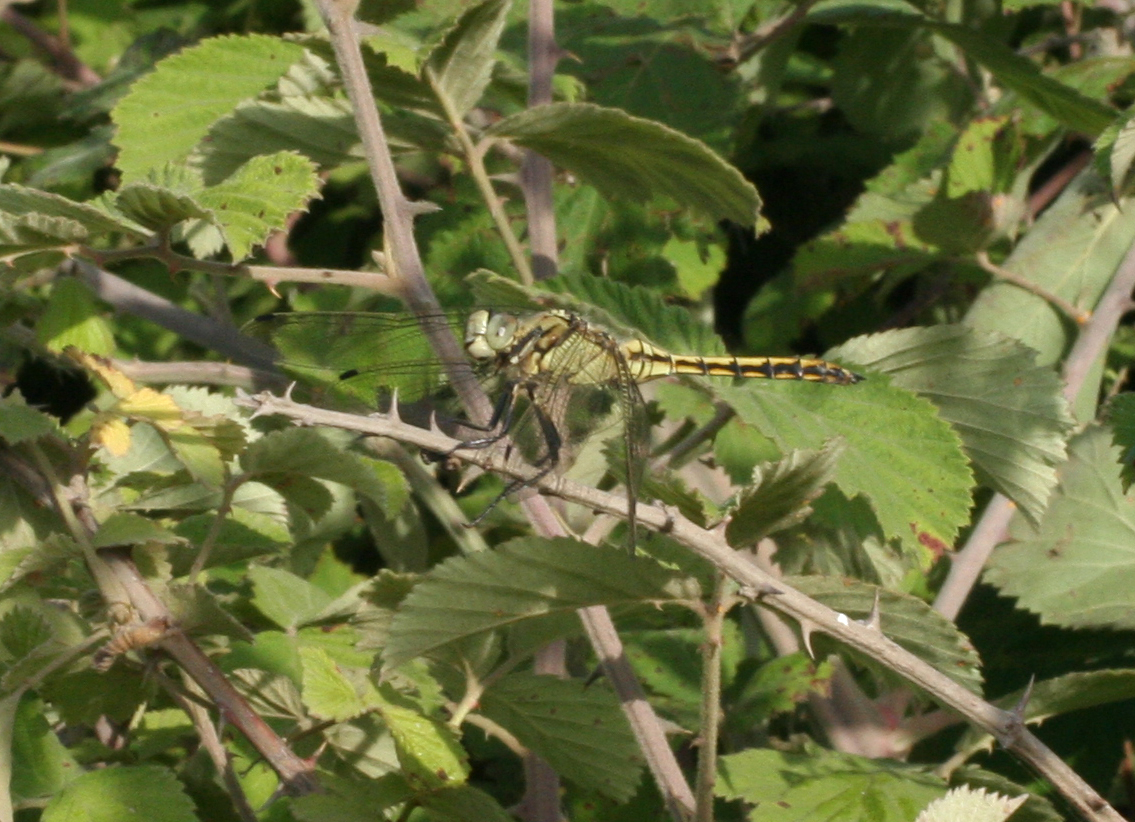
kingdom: Animalia
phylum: Arthropoda
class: Insecta
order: Odonata
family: Libellulidae
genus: Orthetrum
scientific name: Orthetrum cancellatum
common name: Black-tailed skimmer
